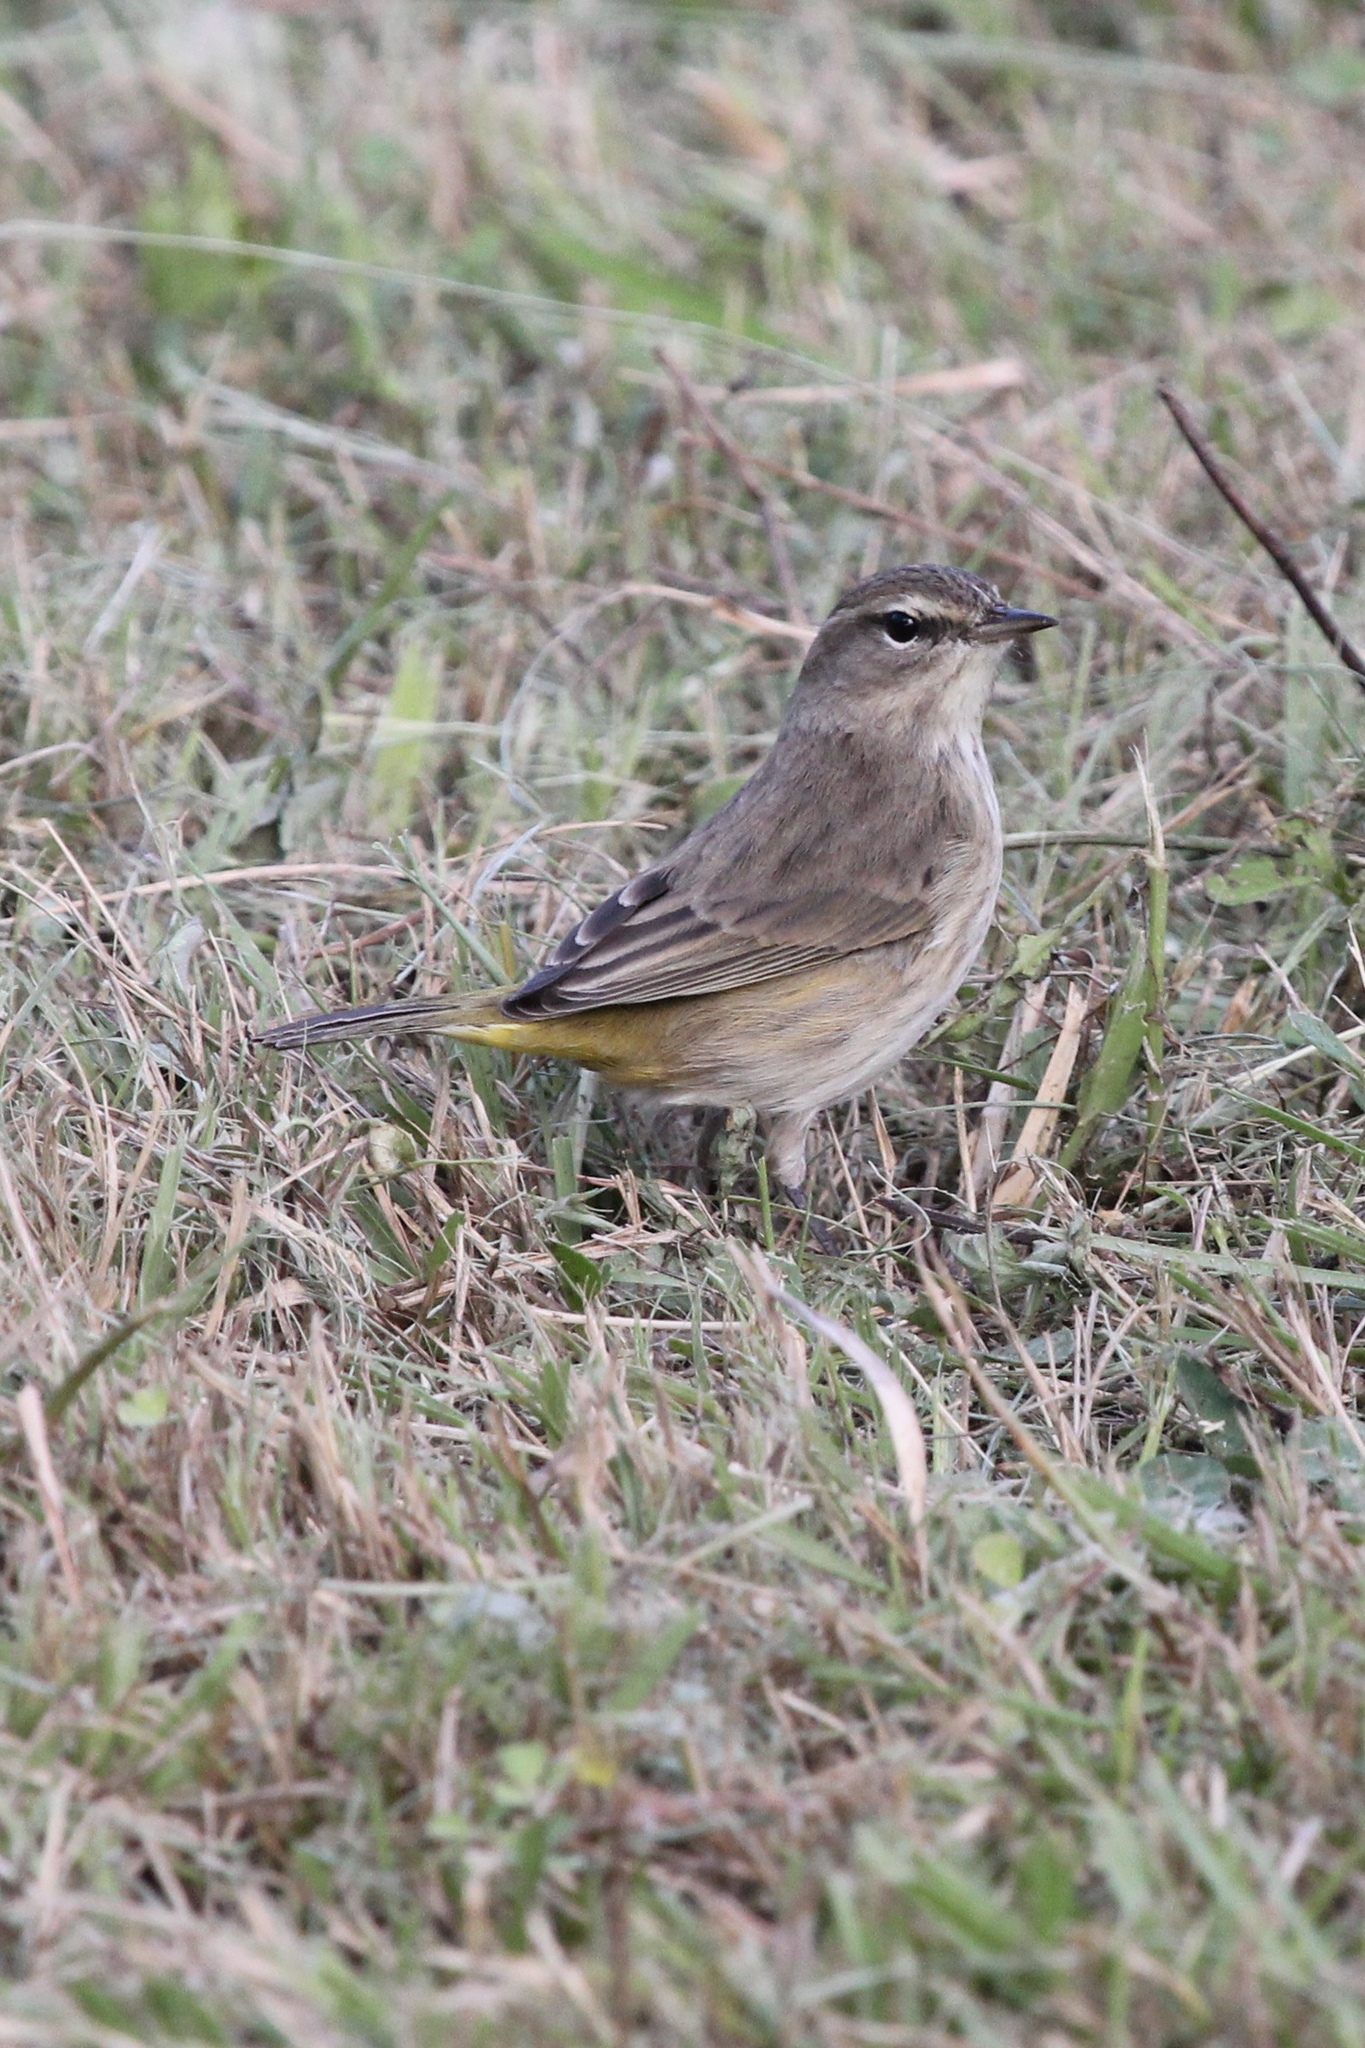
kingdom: Animalia
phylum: Chordata
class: Aves
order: Passeriformes
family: Parulidae
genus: Setophaga
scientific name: Setophaga palmarum
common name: Palm warbler
